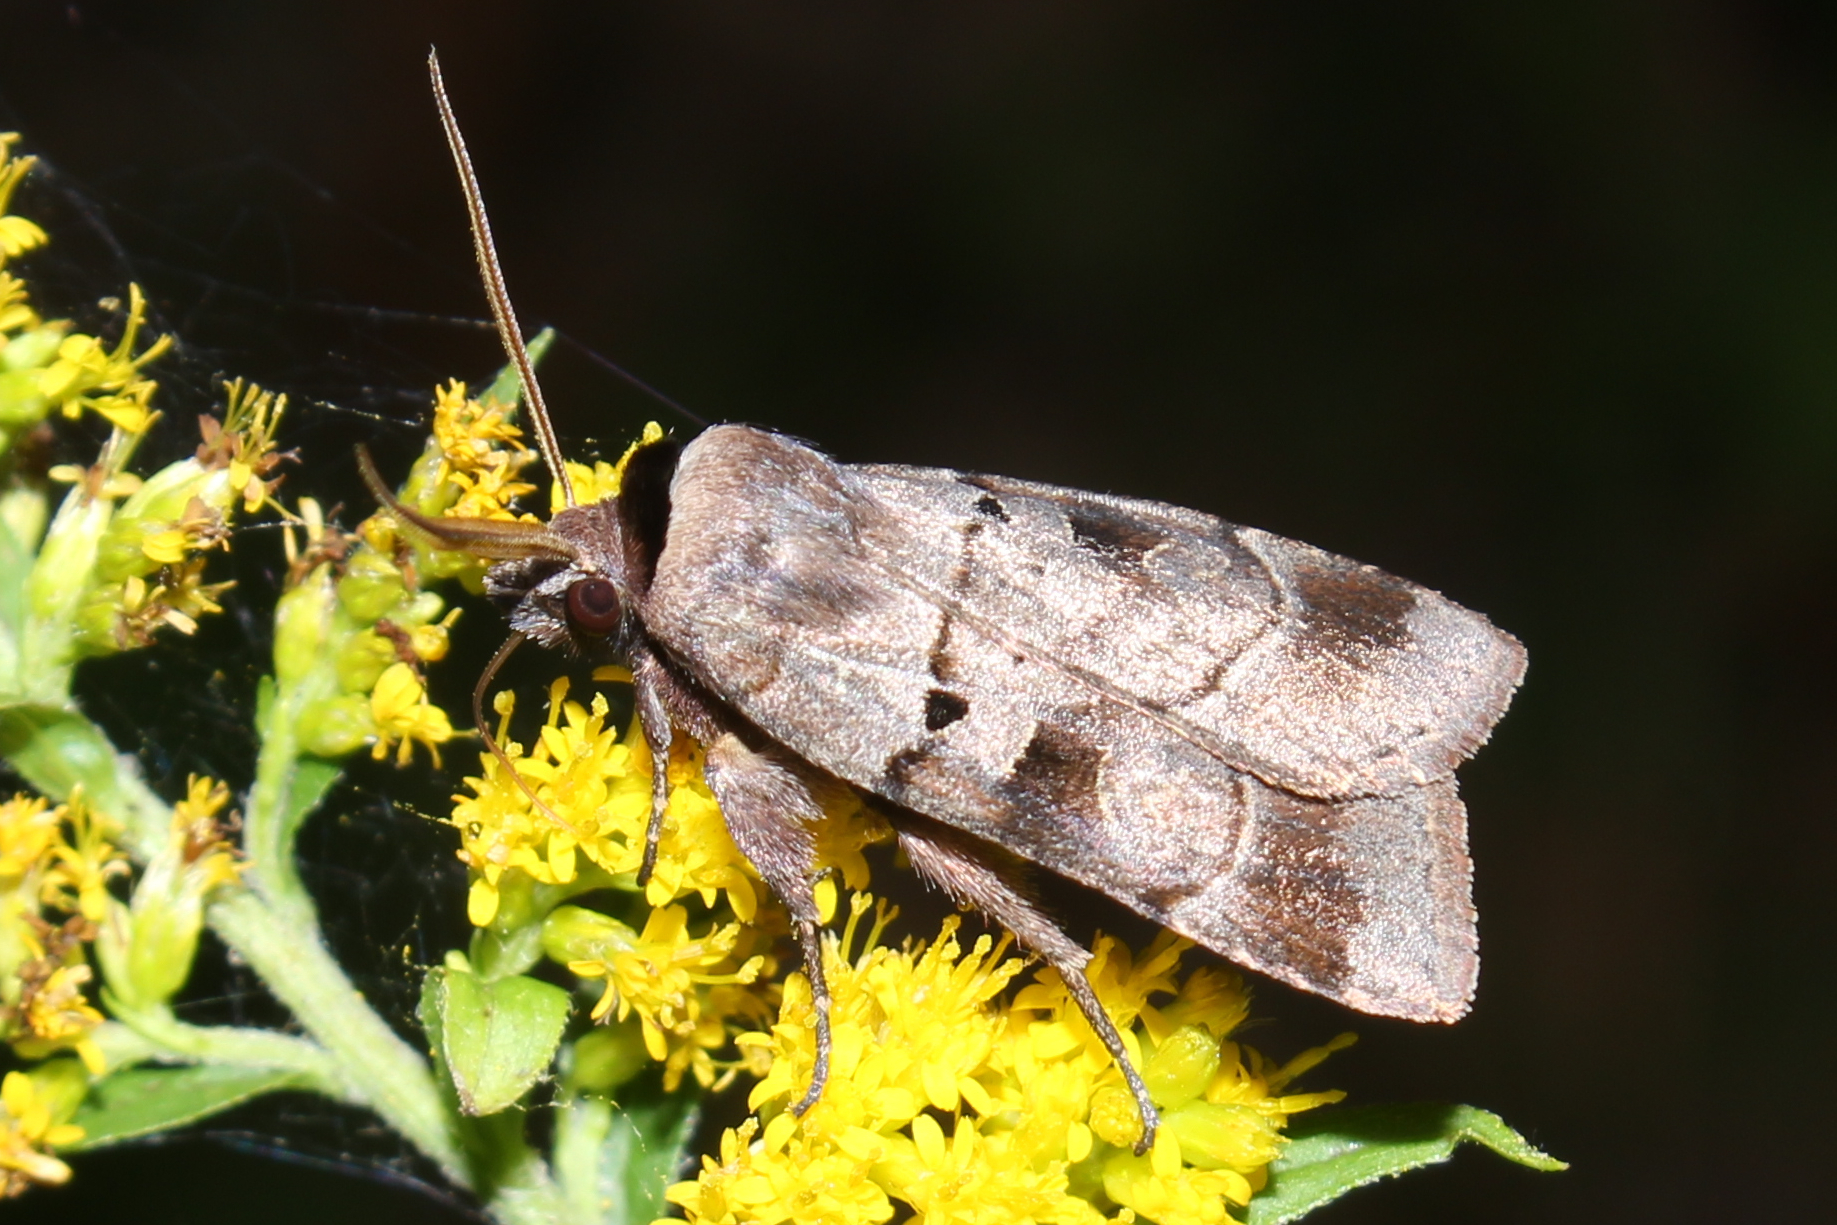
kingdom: Animalia
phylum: Arthropoda
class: Insecta
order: Lepidoptera
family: Noctuidae
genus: Agnorisma
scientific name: Agnorisma badinodis
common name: Pale-banded dart
